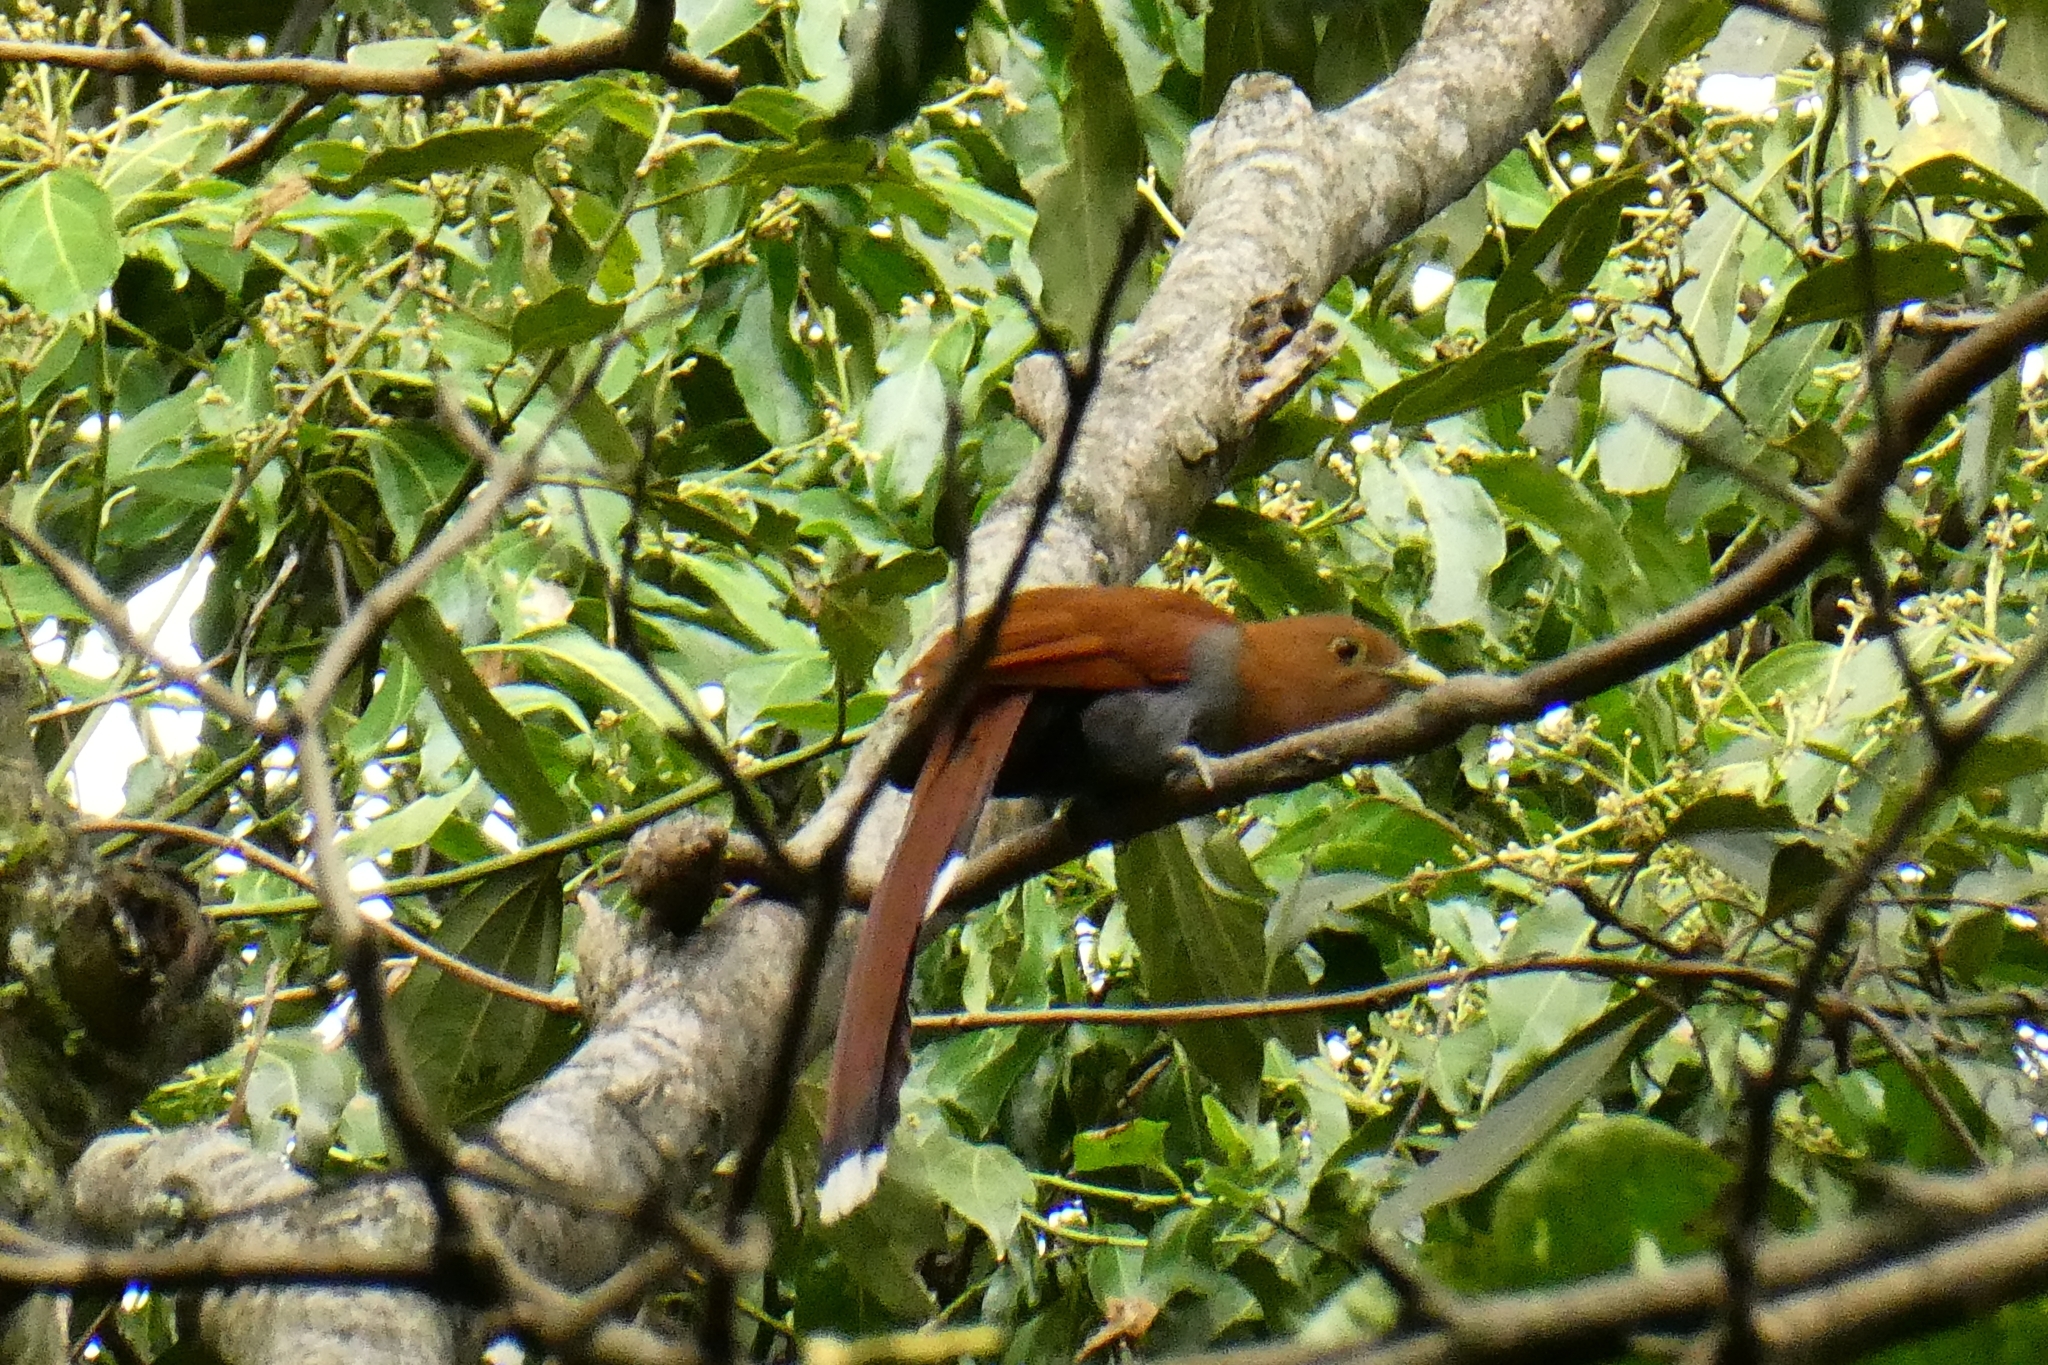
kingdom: Animalia
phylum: Chordata
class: Aves
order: Cuculiformes
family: Cuculidae
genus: Piaya
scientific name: Piaya cayana
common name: Squirrel cuckoo
